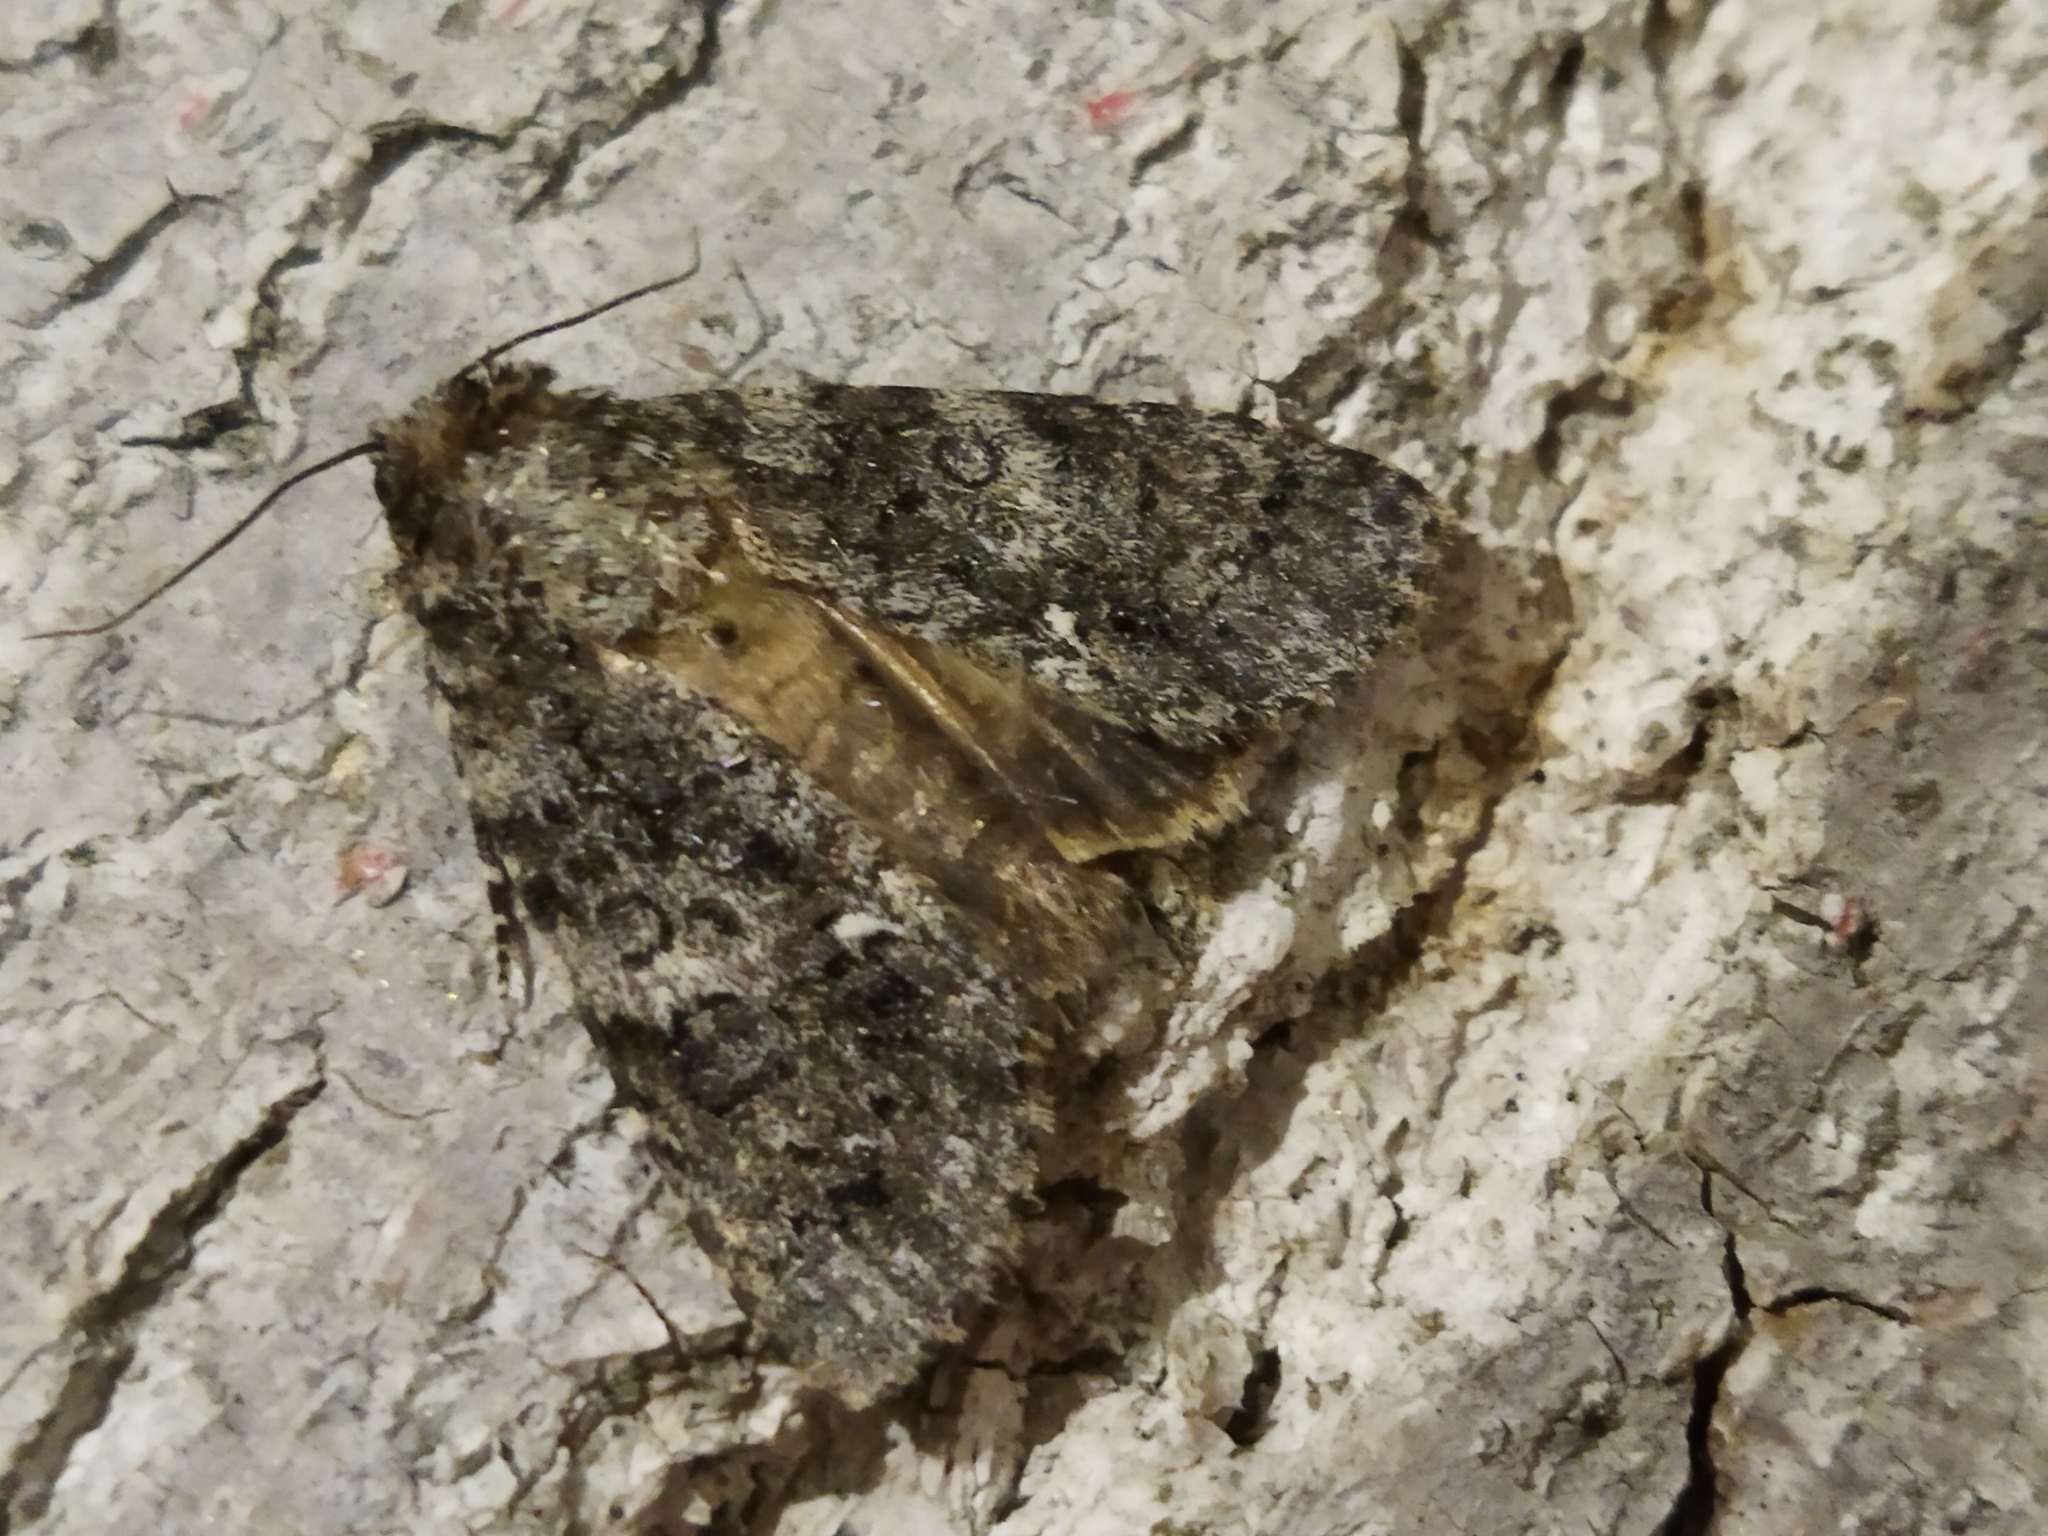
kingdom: Animalia
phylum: Arthropoda
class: Insecta
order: Lepidoptera
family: Noctuidae
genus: Acronicta
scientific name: Acronicta rumicis
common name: Knot grass
